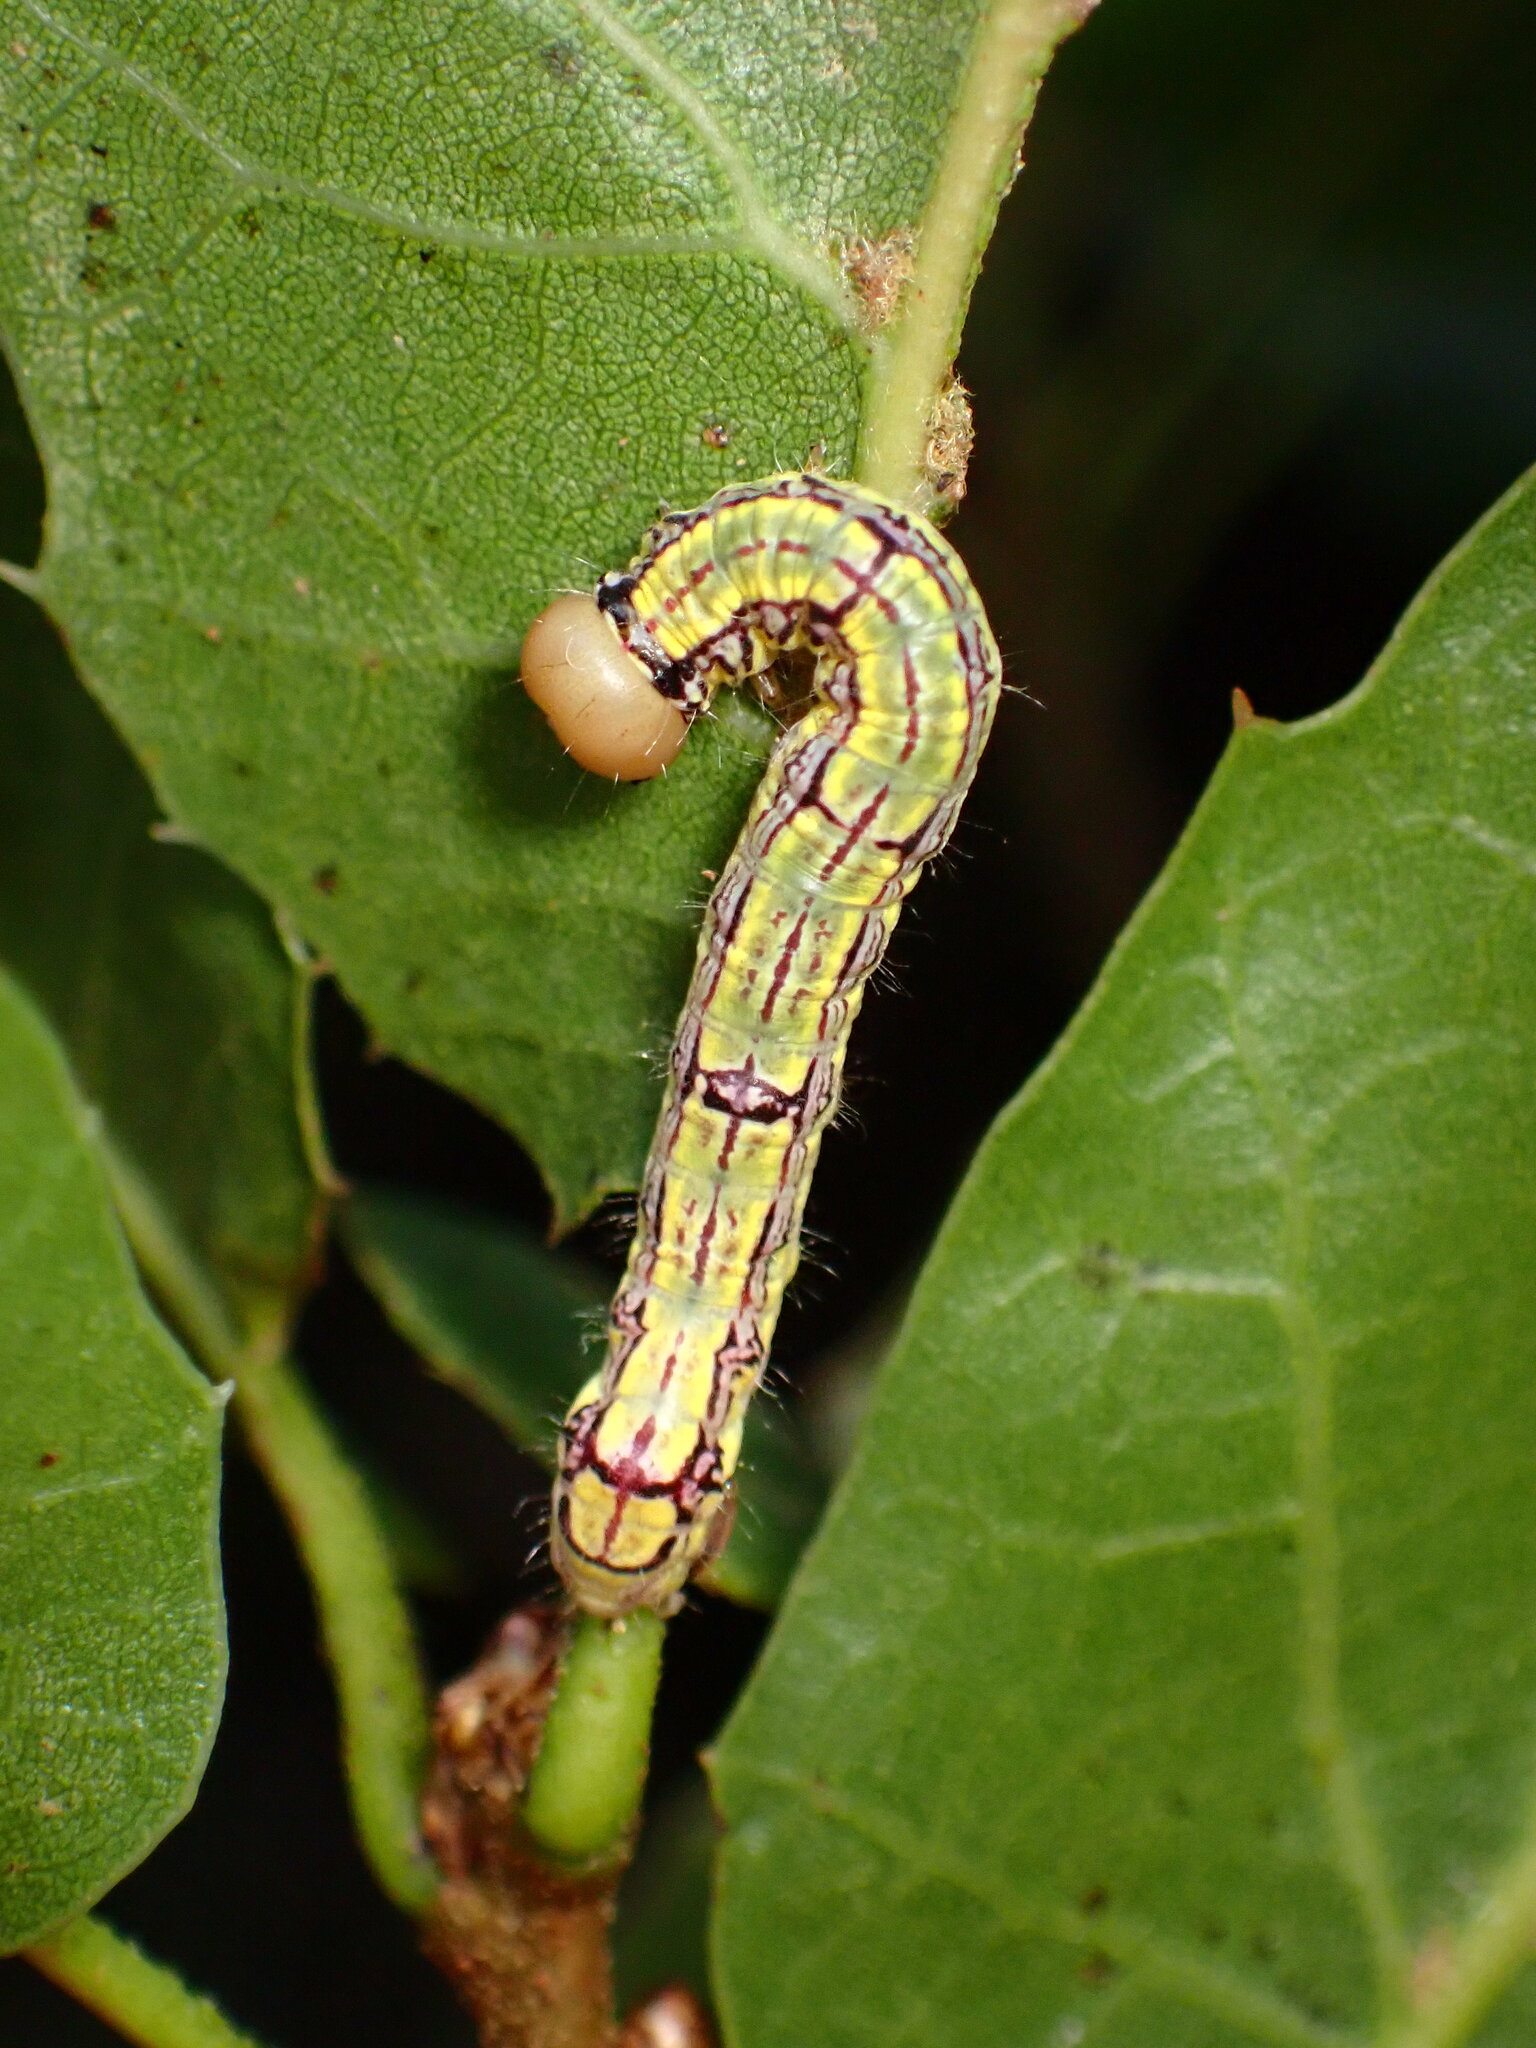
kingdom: Animalia
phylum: Arthropoda
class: Insecta
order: Lepidoptera
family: Notodontidae
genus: Phryganidia
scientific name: Phryganidia californica
